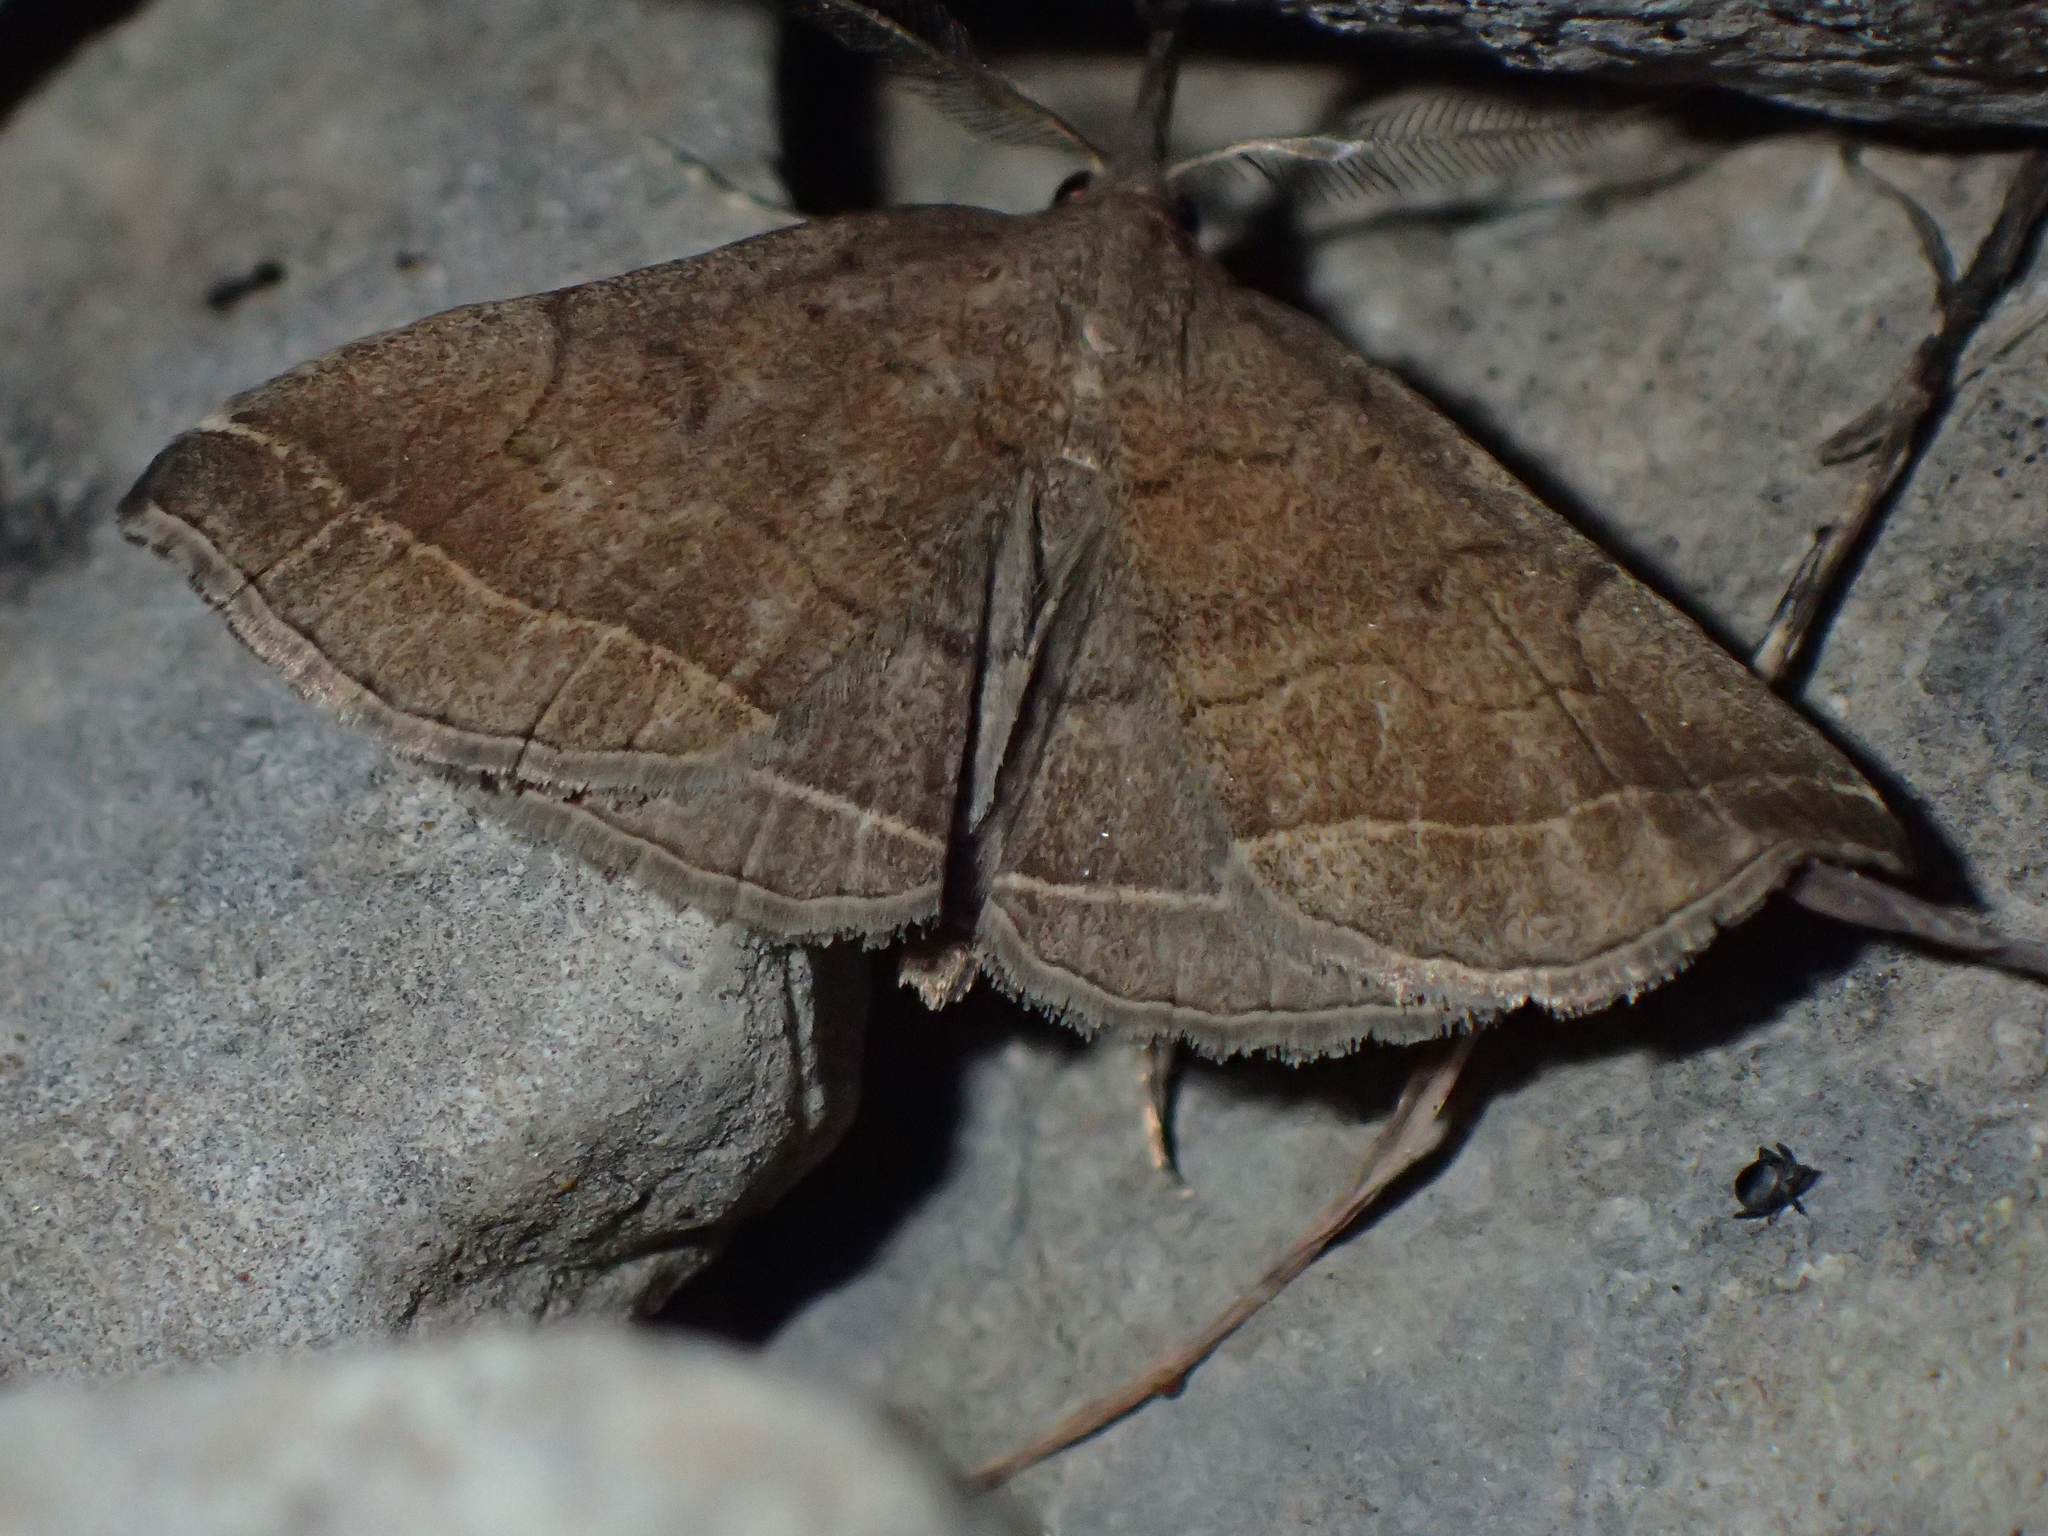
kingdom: Animalia
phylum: Arthropoda
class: Insecta
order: Lepidoptera
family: Erebidae
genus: Pechipogo
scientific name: Pechipogo plumigeralis
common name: Plumed fan-foot
